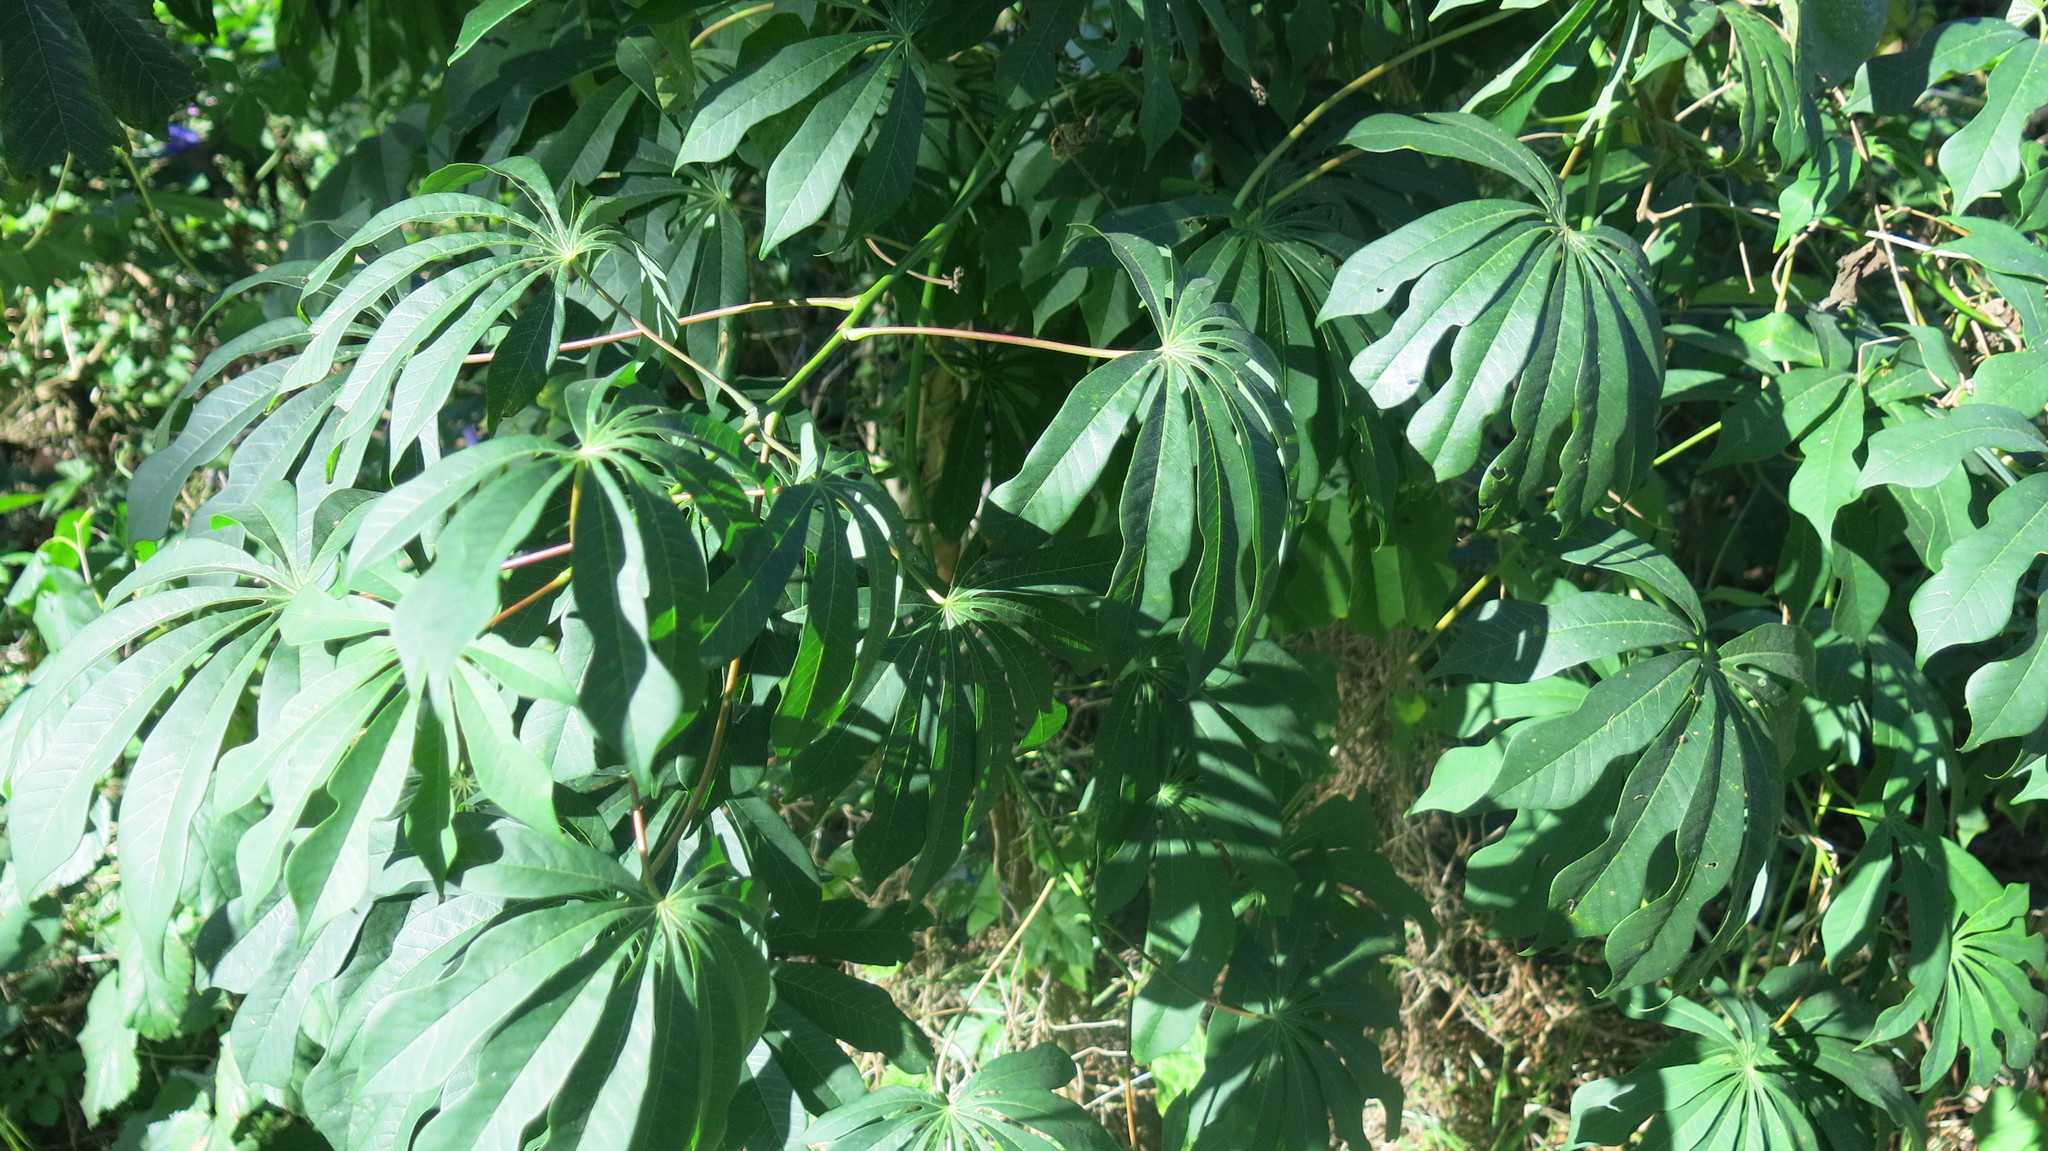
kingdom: Plantae
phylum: Tracheophyta
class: Magnoliopsida
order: Malpighiales
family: Euphorbiaceae
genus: Manihot
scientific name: Manihot grahamii
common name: Graham's manihot
